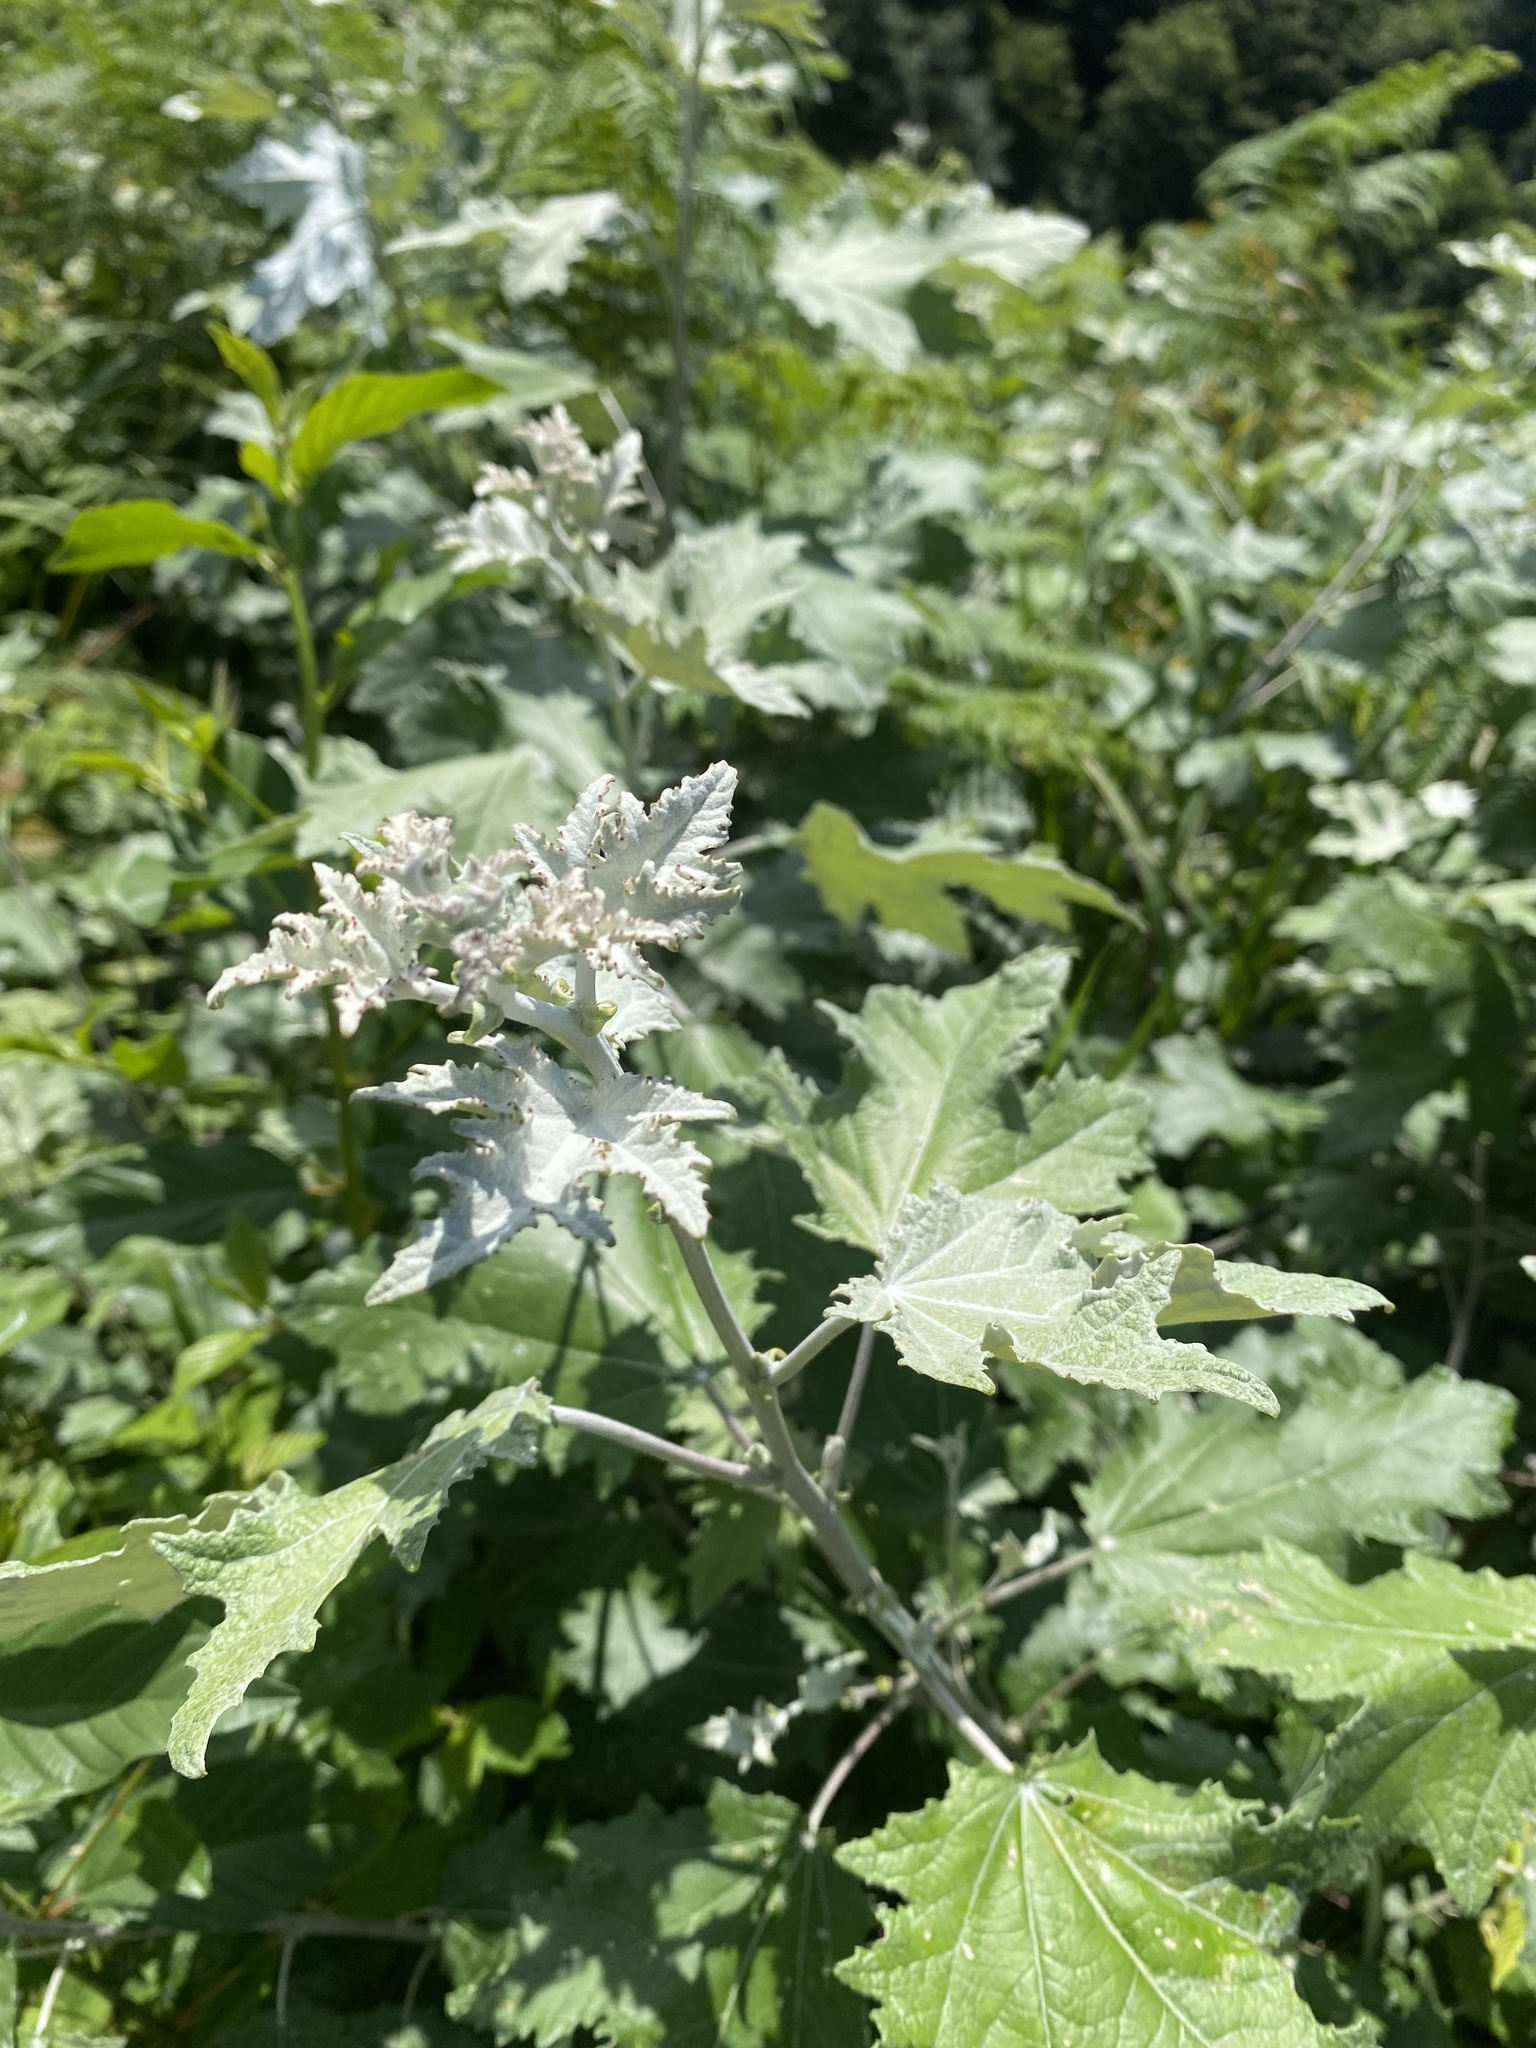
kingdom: Plantae
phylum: Tracheophyta
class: Magnoliopsida
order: Malpighiales
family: Salicaceae
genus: Populus
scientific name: Populus alba
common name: White poplar
